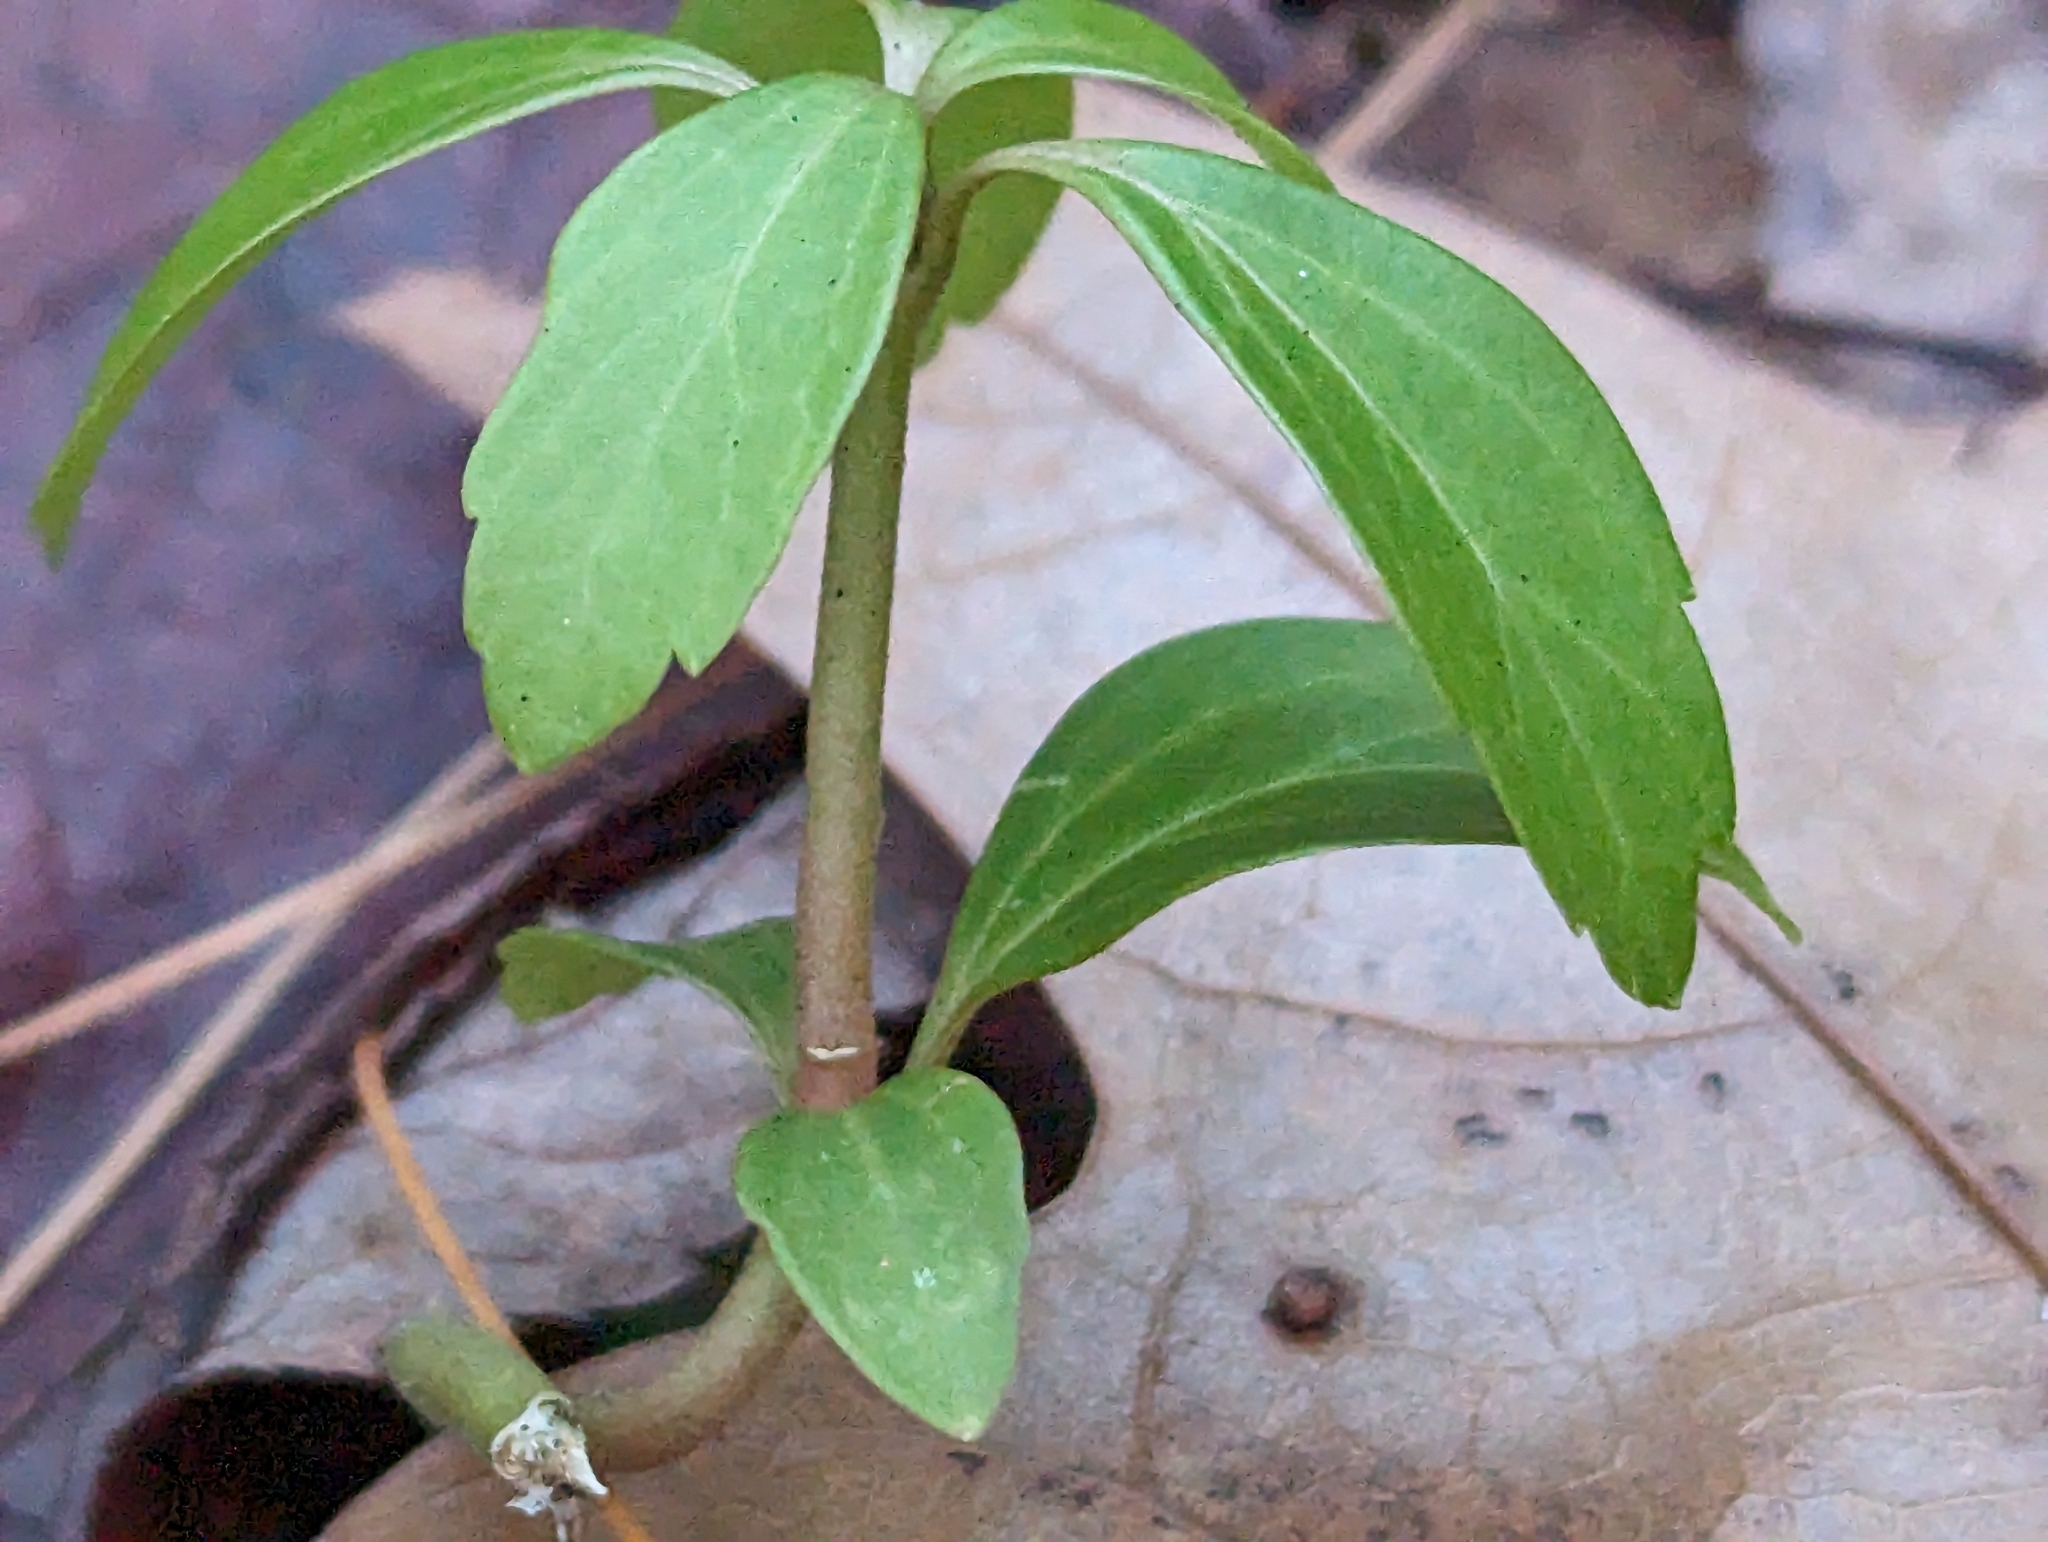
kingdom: Plantae
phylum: Tracheophyta
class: Magnoliopsida
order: Buxales
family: Buxaceae
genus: Pachysandra
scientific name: Pachysandra terminalis
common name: Japanese pachysandra
